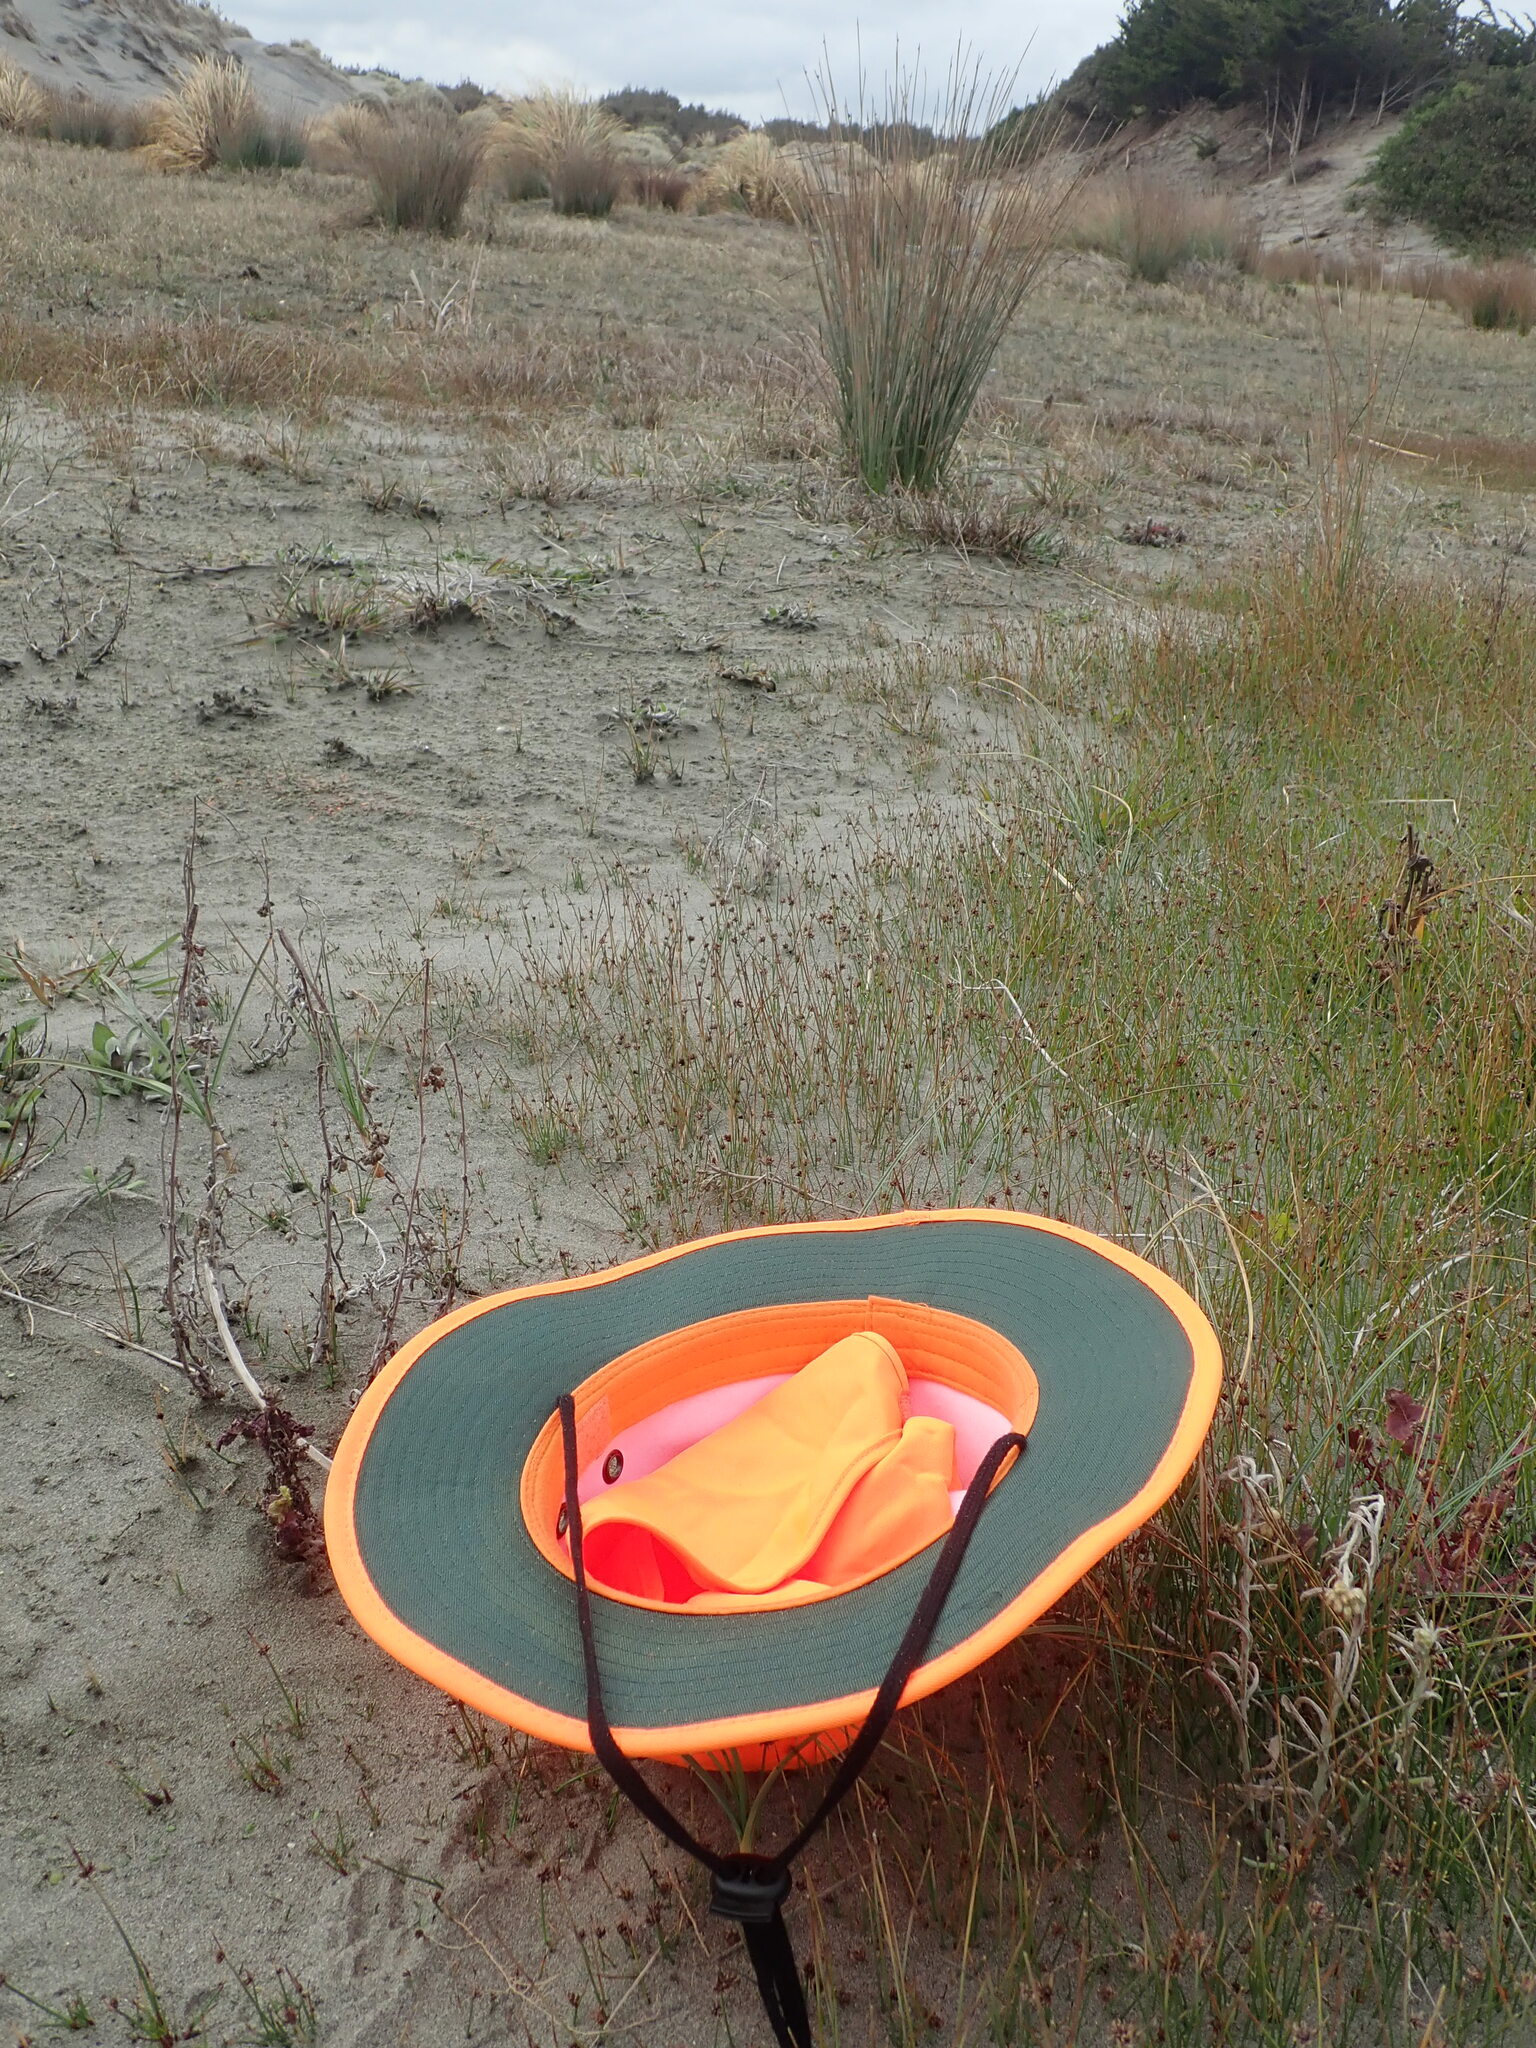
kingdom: Animalia
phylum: Arthropoda
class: Arachnida
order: Araneae
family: Lycosidae
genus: Hogna
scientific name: Hogna crispipes
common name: Wolf spider
